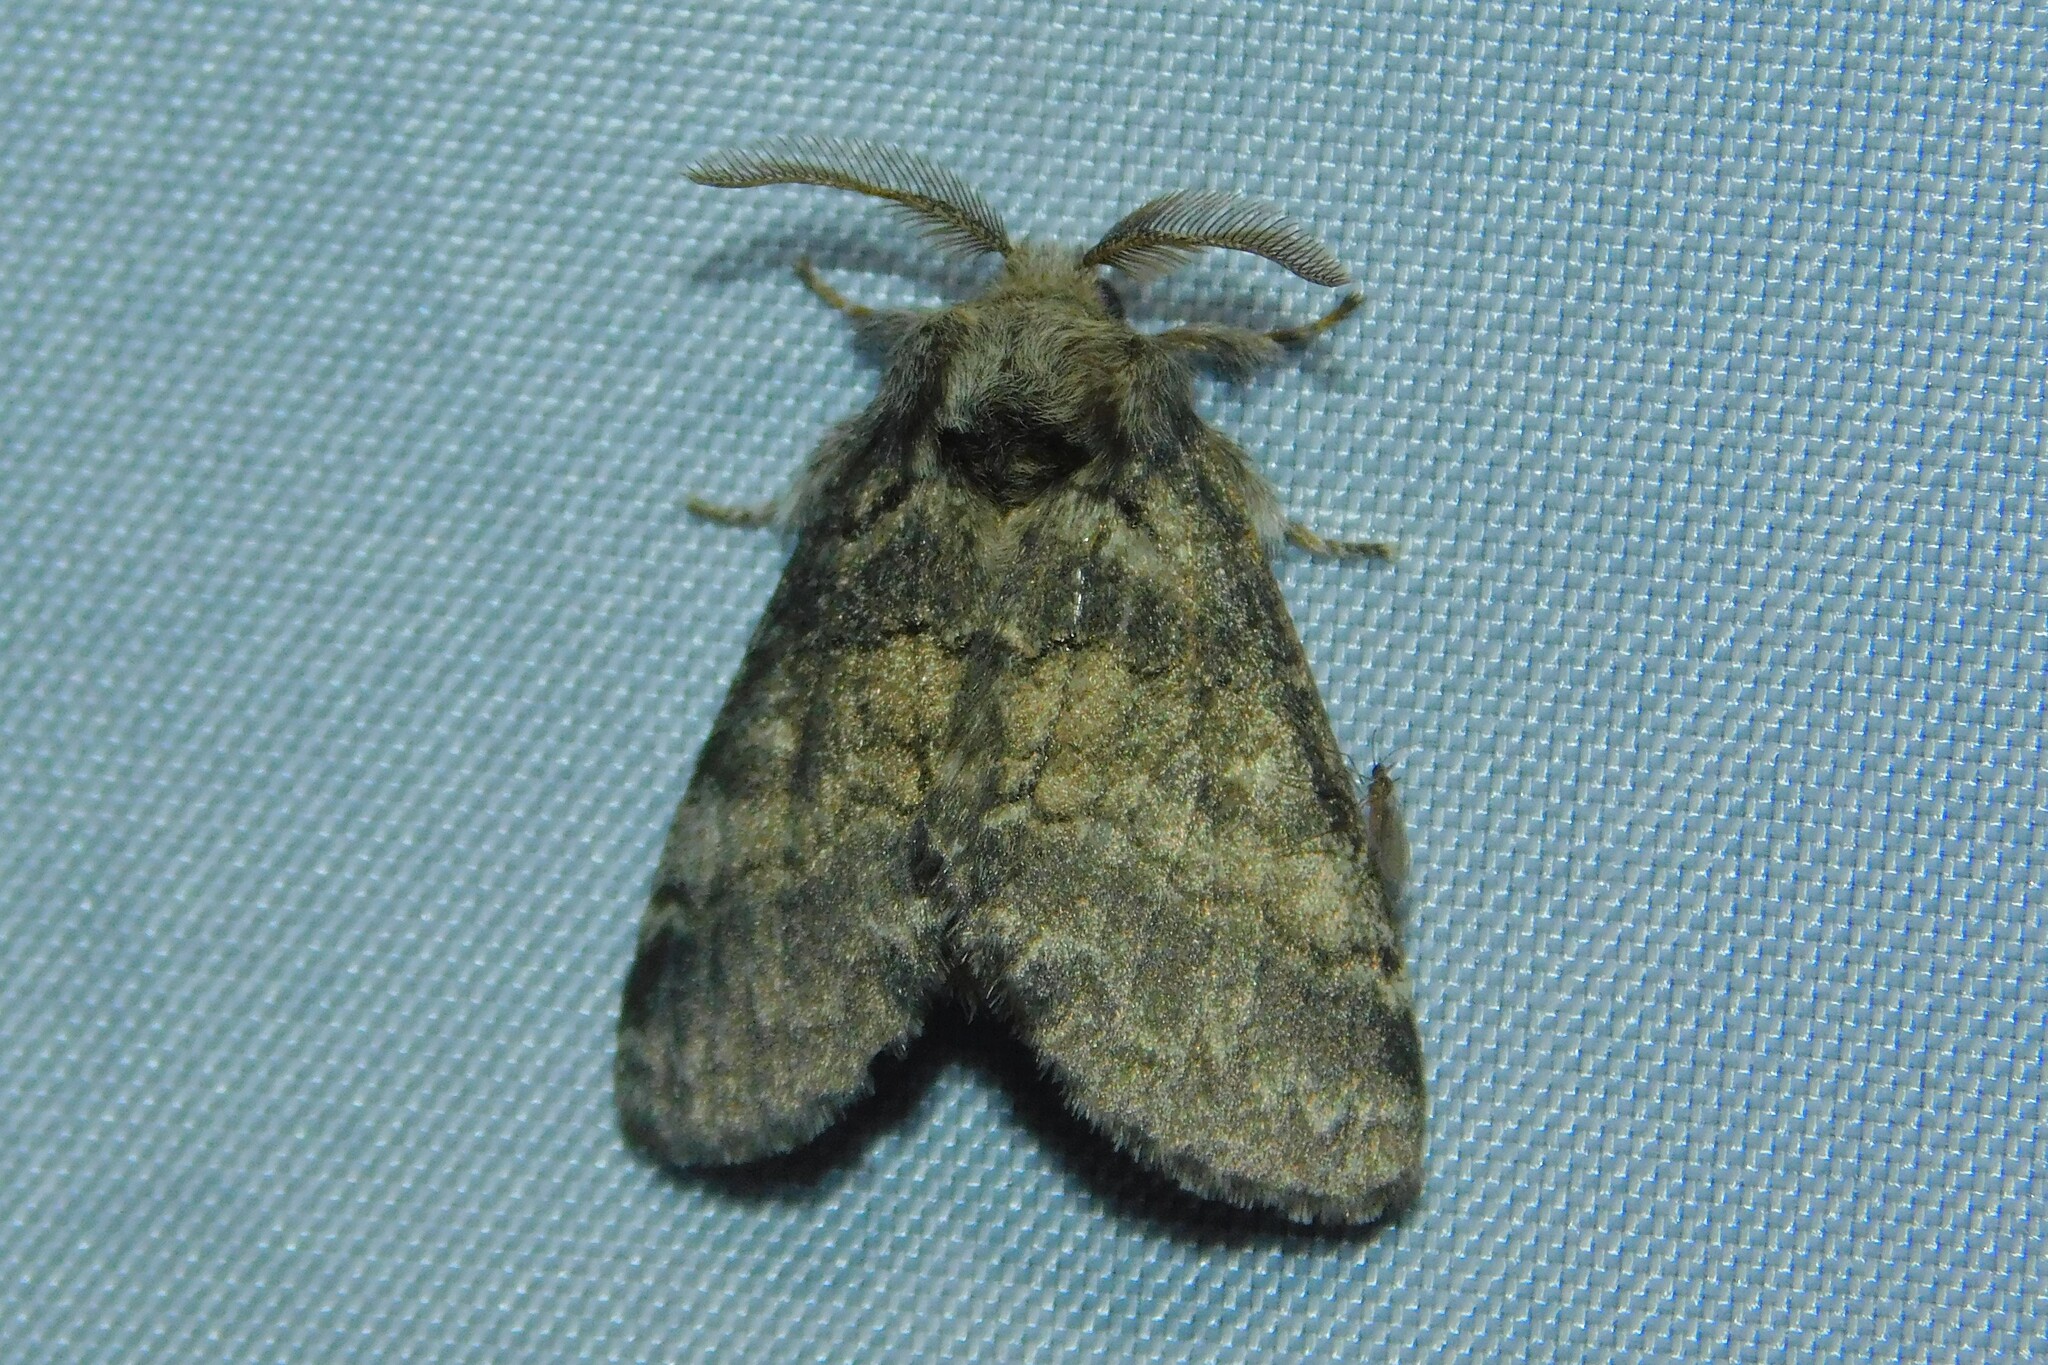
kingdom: Animalia
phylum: Arthropoda
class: Insecta
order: Lepidoptera
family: Notodontidae
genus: Gluphisia
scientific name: Gluphisia crenata
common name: Dusky marbled brown
